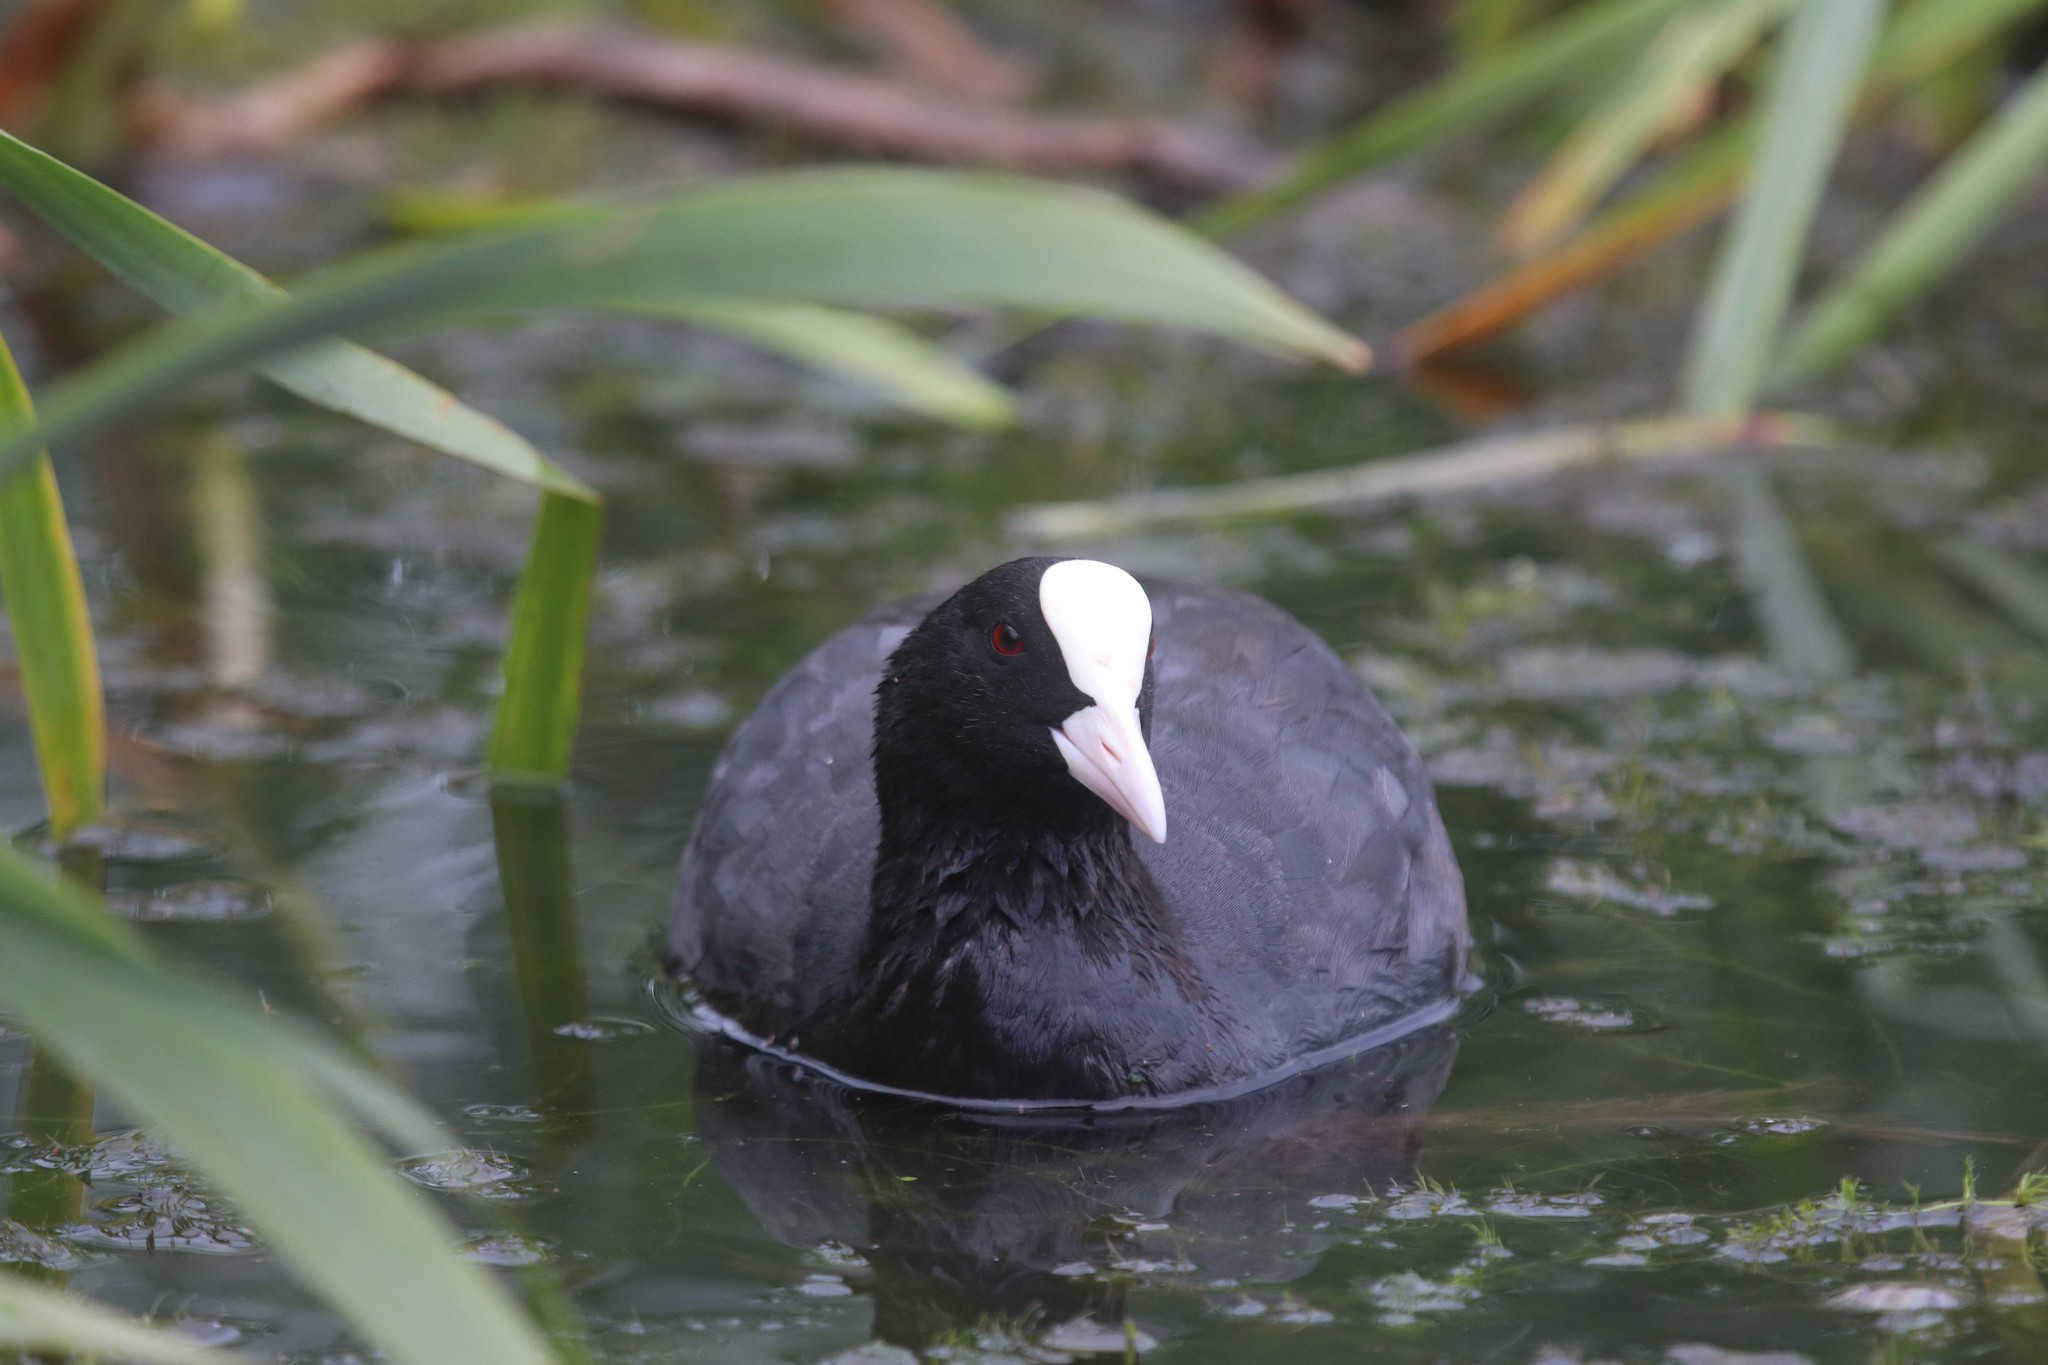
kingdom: Animalia
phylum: Chordata
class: Aves
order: Gruiformes
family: Rallidae
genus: Fulica
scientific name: Fulica atra
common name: Eurasian coot
